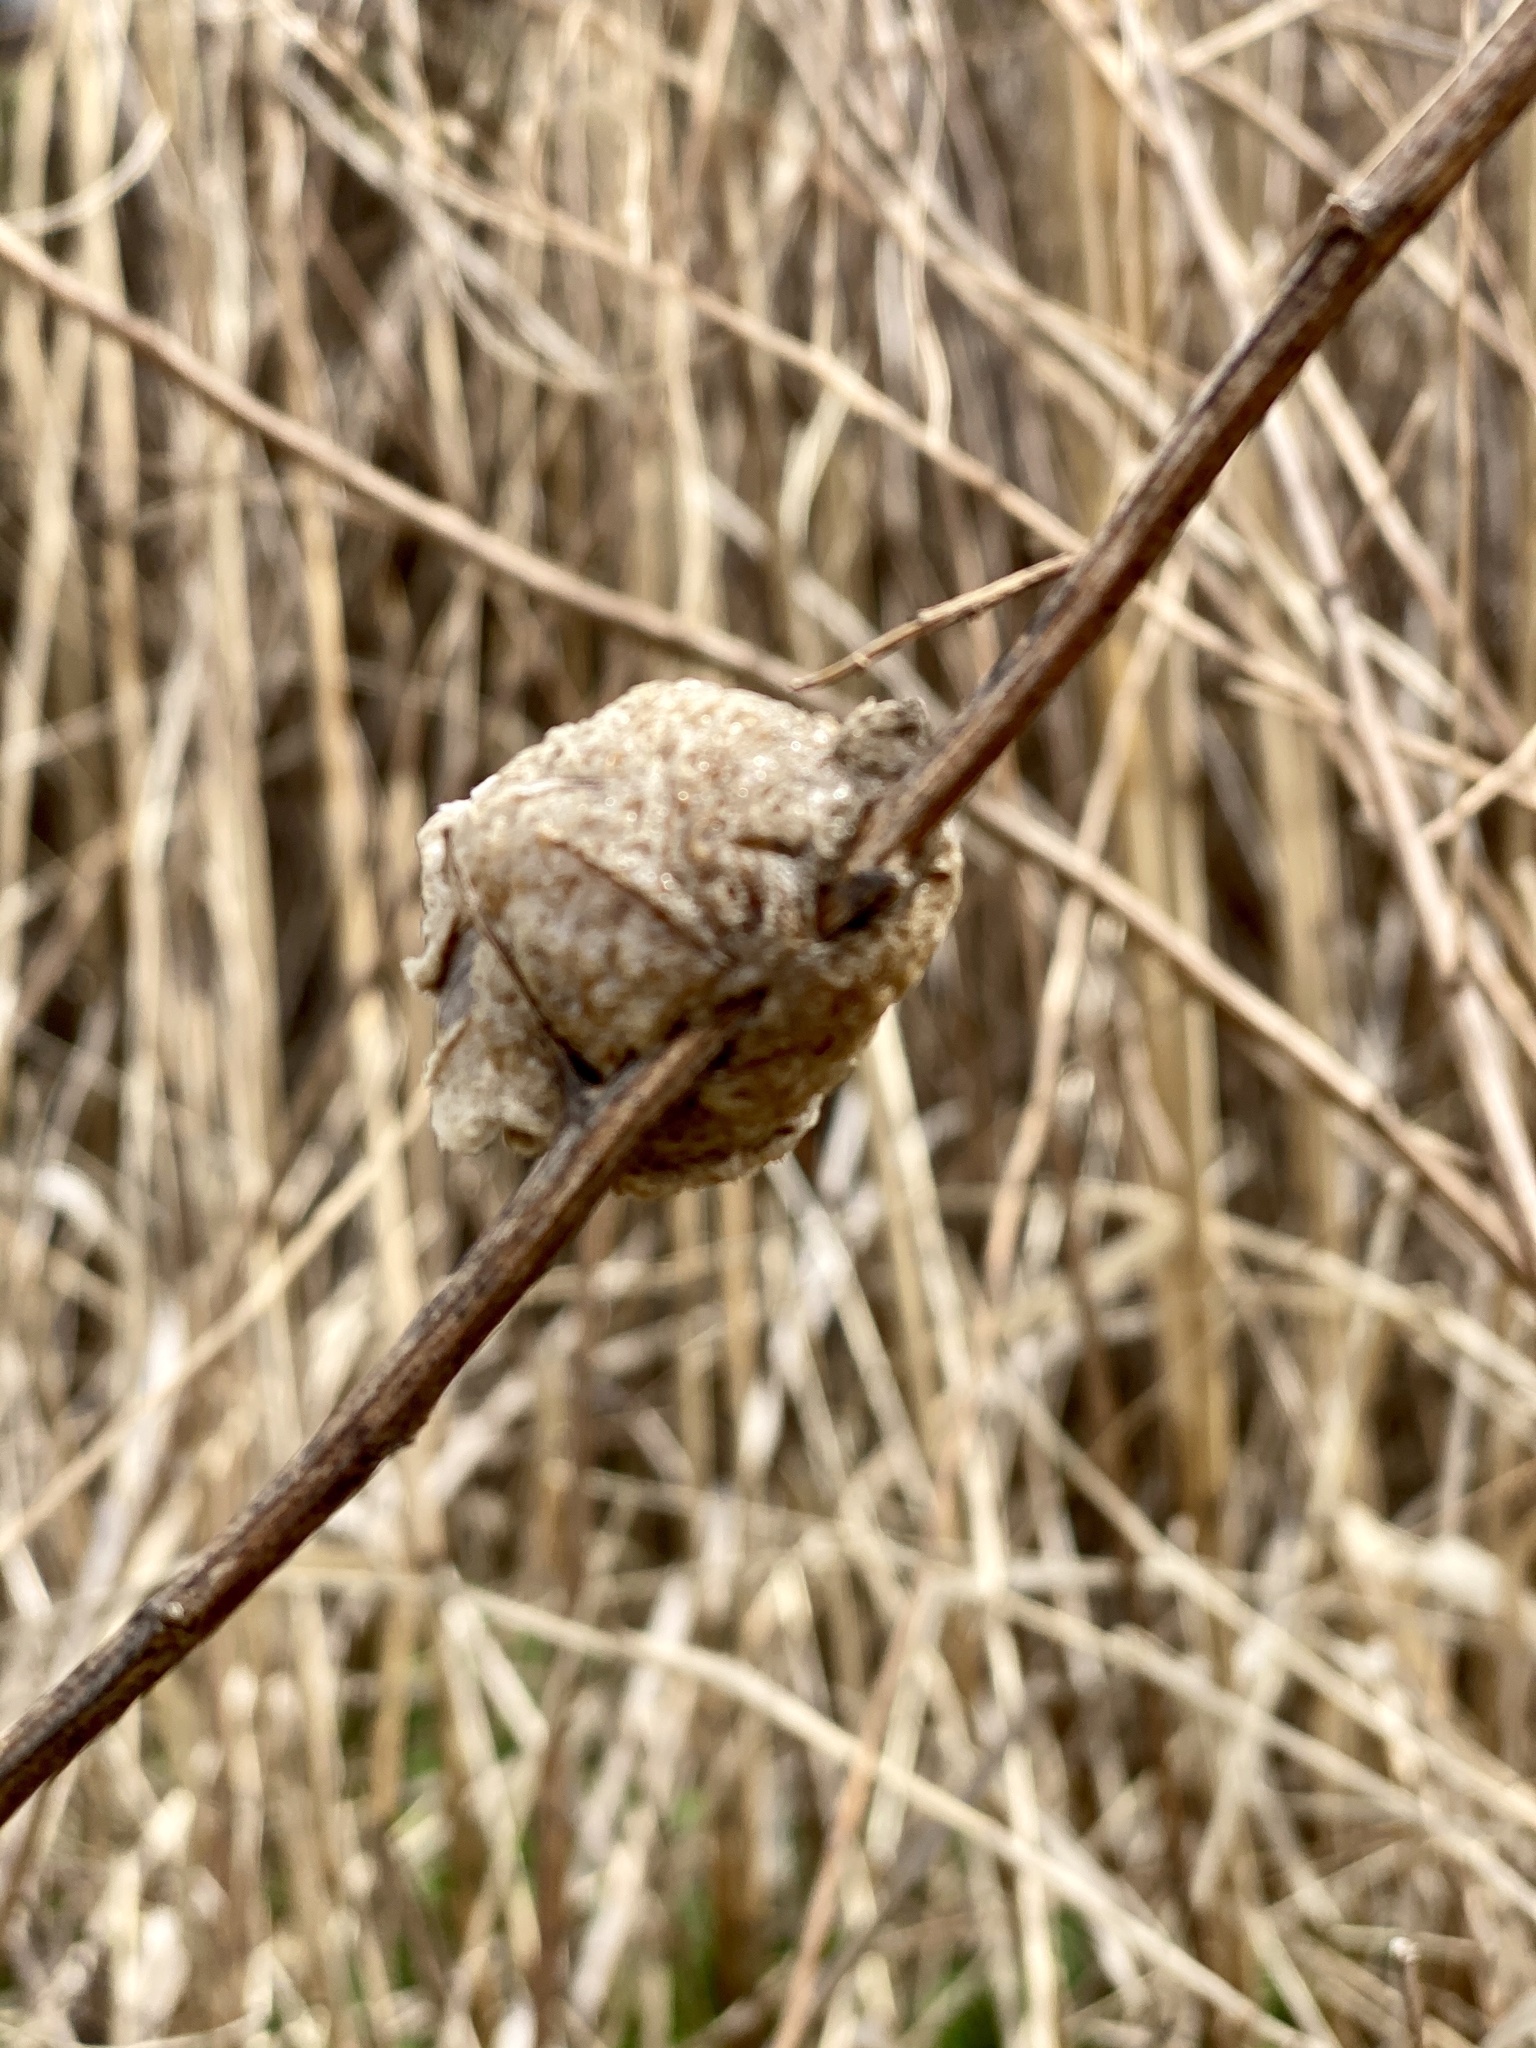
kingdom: Animalia
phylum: Arthropoda
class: Insecta
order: Mantodea
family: Mantidae
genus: Tenodera
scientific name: Tenodera sinensis
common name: Chinese mantis
